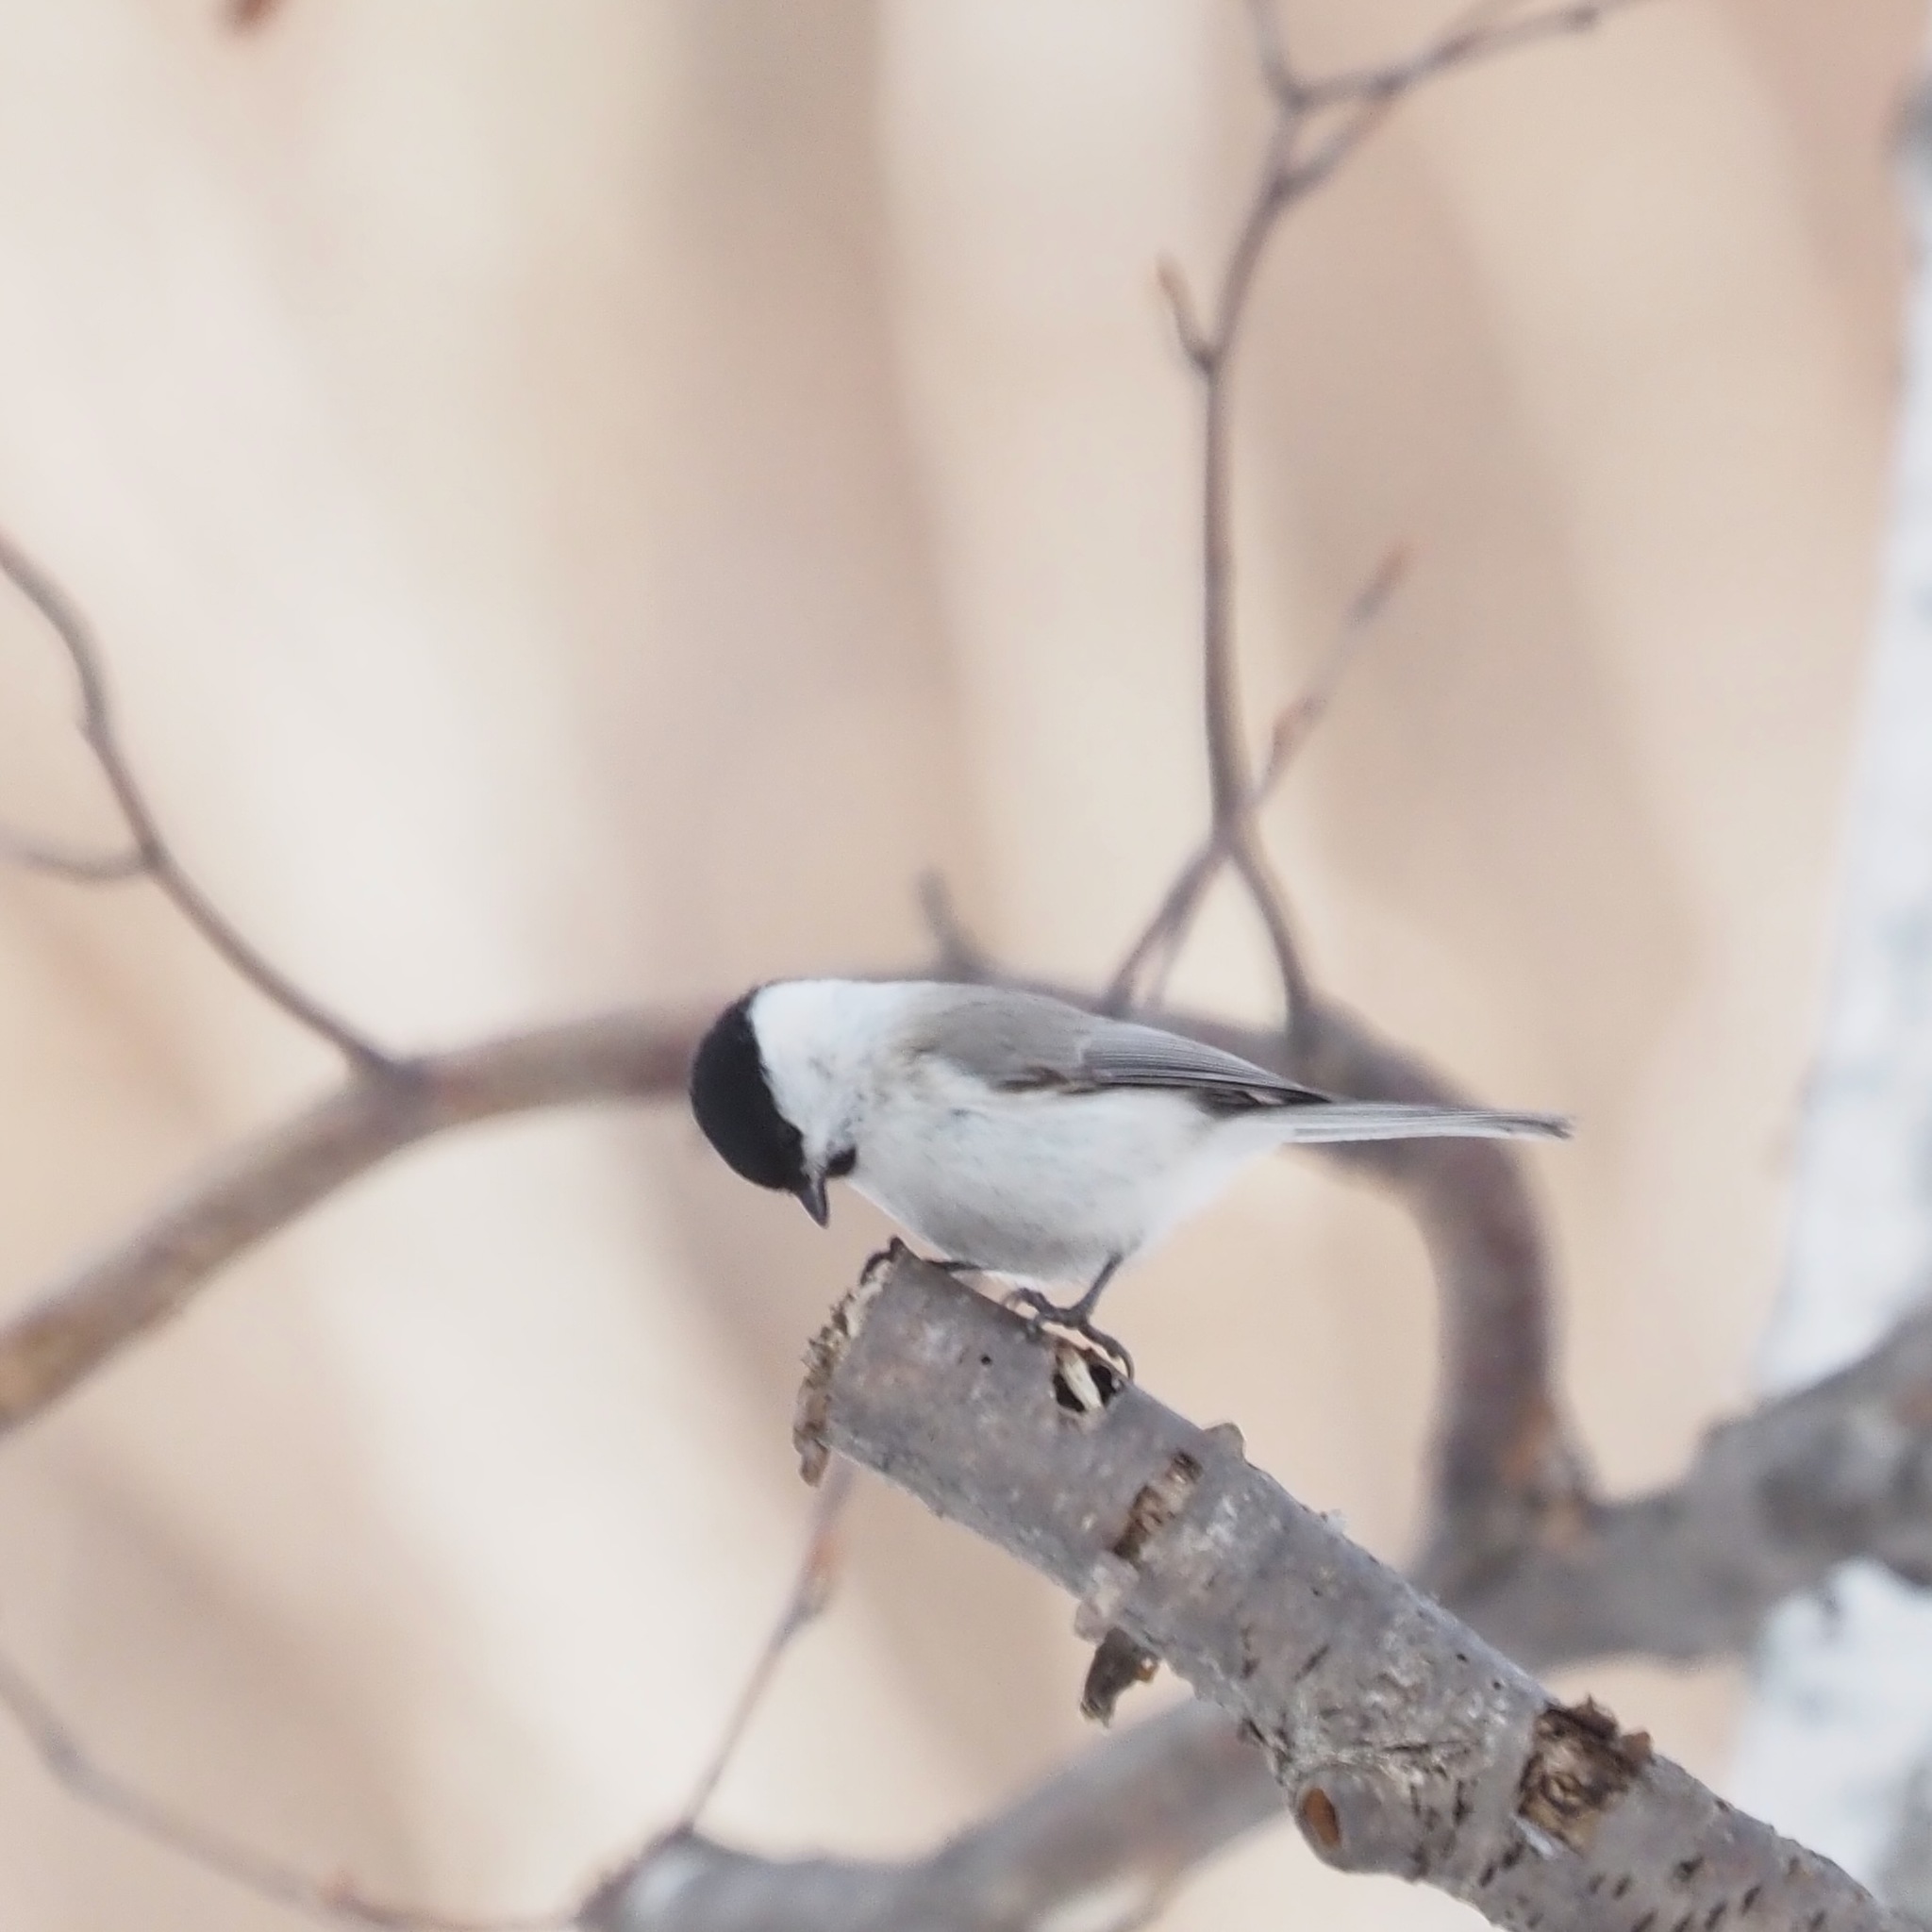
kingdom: Animalia
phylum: Chordata
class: Aves
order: Passeriformes
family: Paridae
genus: Poecile
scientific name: Poecile palustris
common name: Marsh tit
